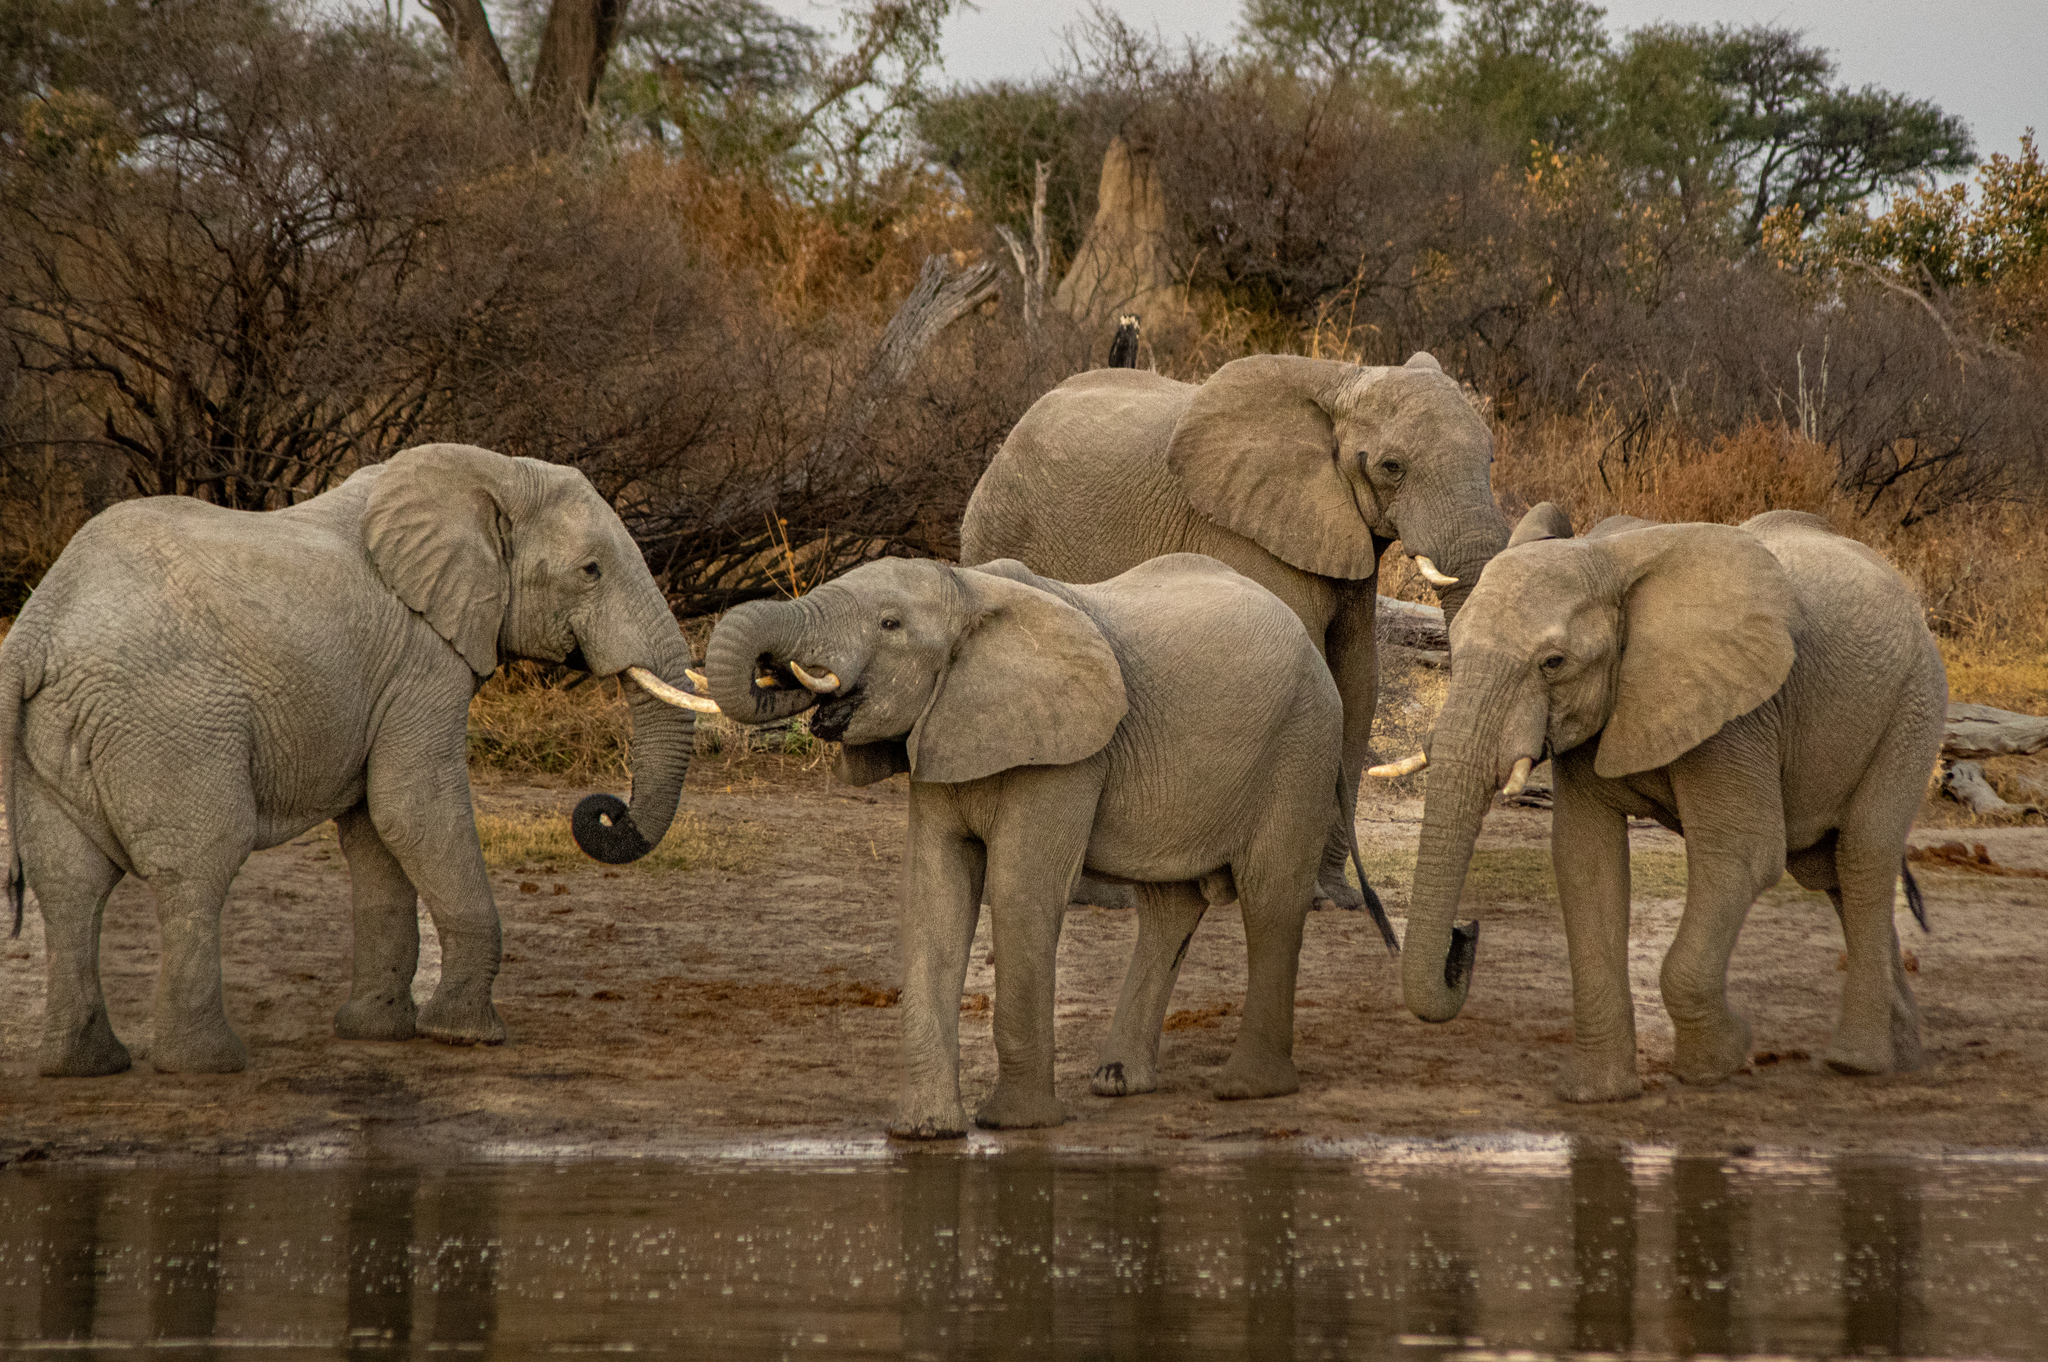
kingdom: Animalia
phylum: Chordata
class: Mammalia
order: Proboscidea
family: Elephantidae
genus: Loxodonta
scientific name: Loxodonta africana
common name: African elephant
